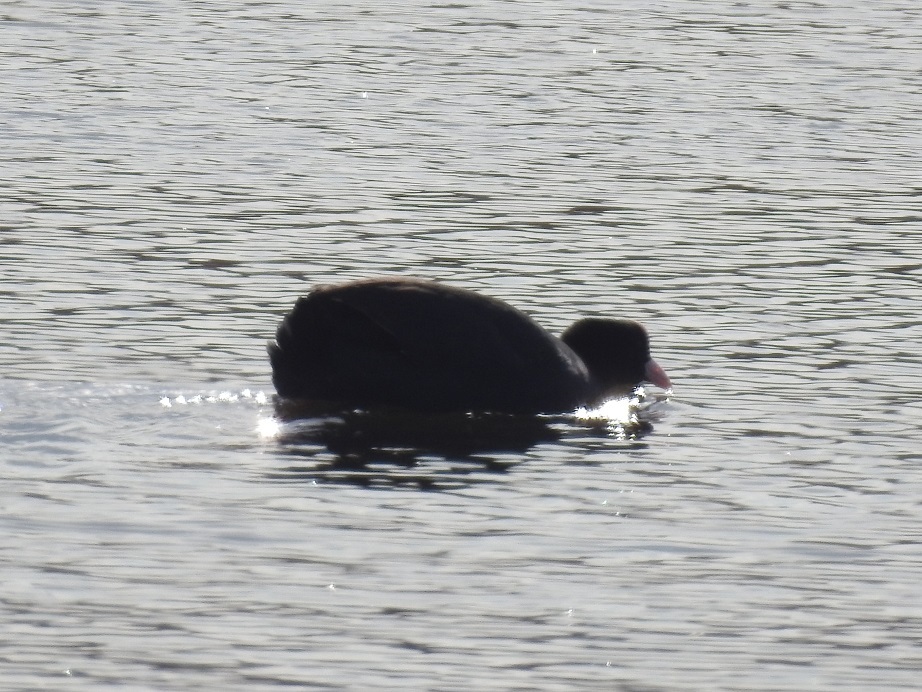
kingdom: Animalia
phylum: Chordata
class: Aves
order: Gruiformes
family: Rallidae
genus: Fulica
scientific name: Fulica atra
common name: Eurasian coot
